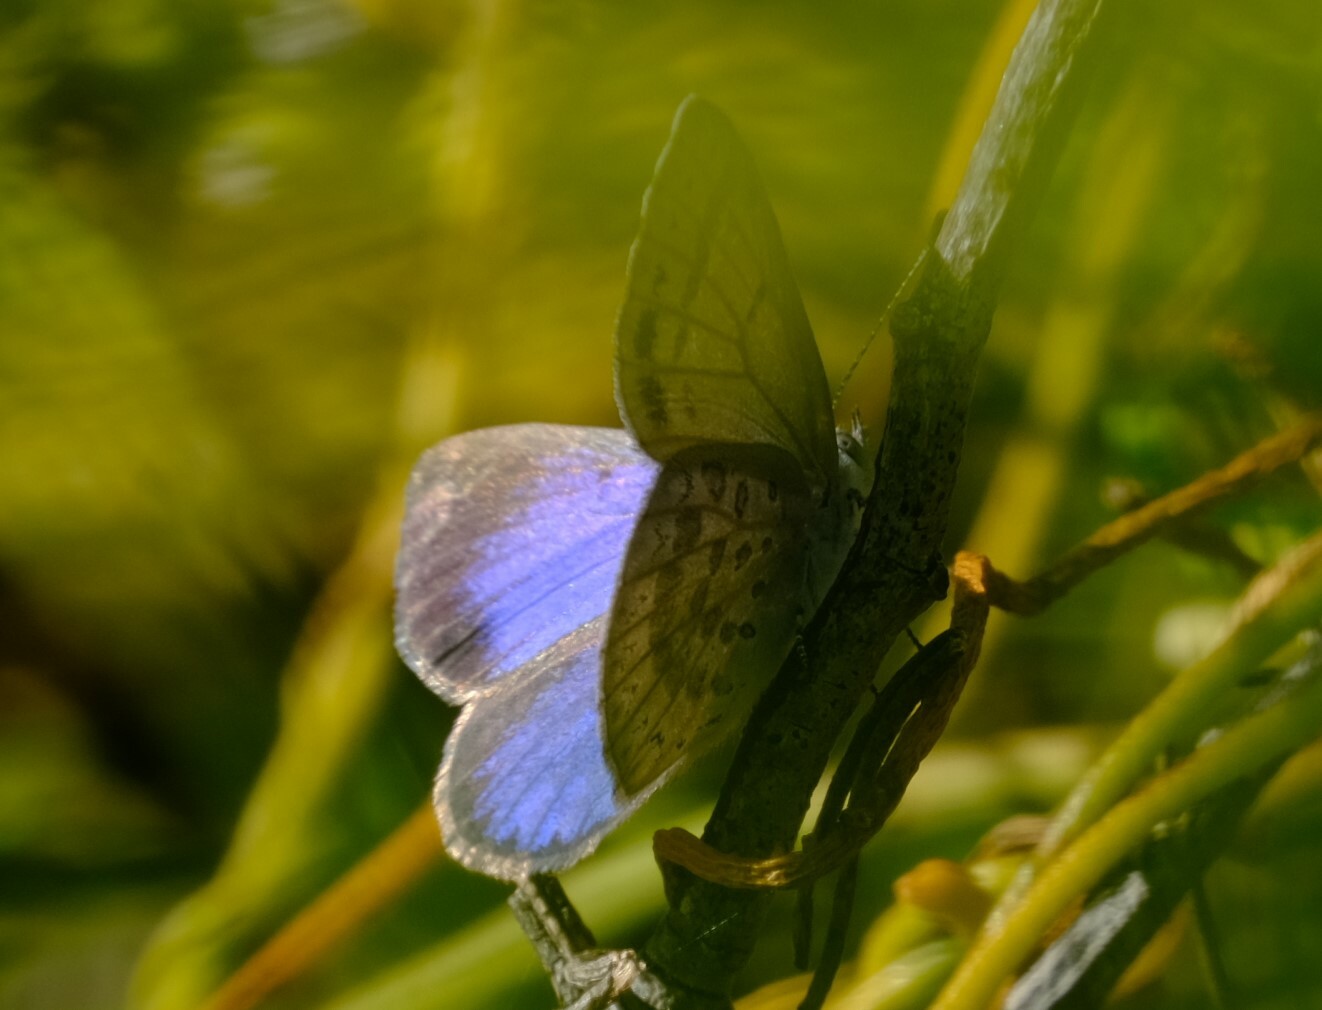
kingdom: Animalia
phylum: Arthropoda
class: Insecta
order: Lepidoptera
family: Lycaenidae
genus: Candalides
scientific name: Candalides
